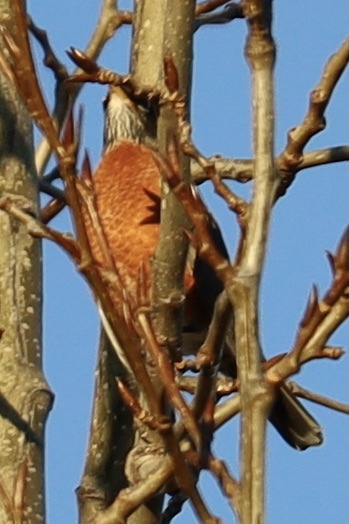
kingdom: Animalia
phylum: Chordata
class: Aves
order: Passeriformes
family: Turdidae
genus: Turdus
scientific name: Turdus migratorius
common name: American robin
